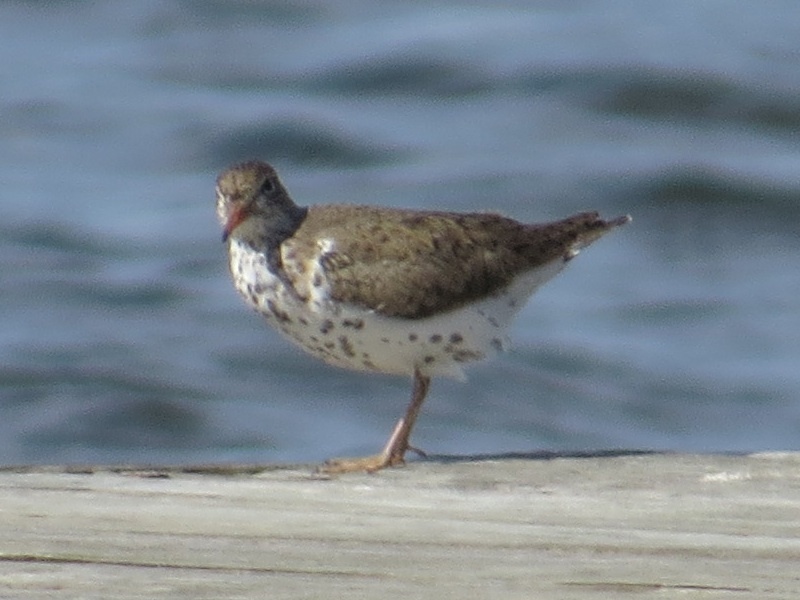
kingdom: Animalia
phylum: Chordata
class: Aves
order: Charadriiformes
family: Scolopacidae
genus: Actitis
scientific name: Actitis macularius
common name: Spotted sandpiper
